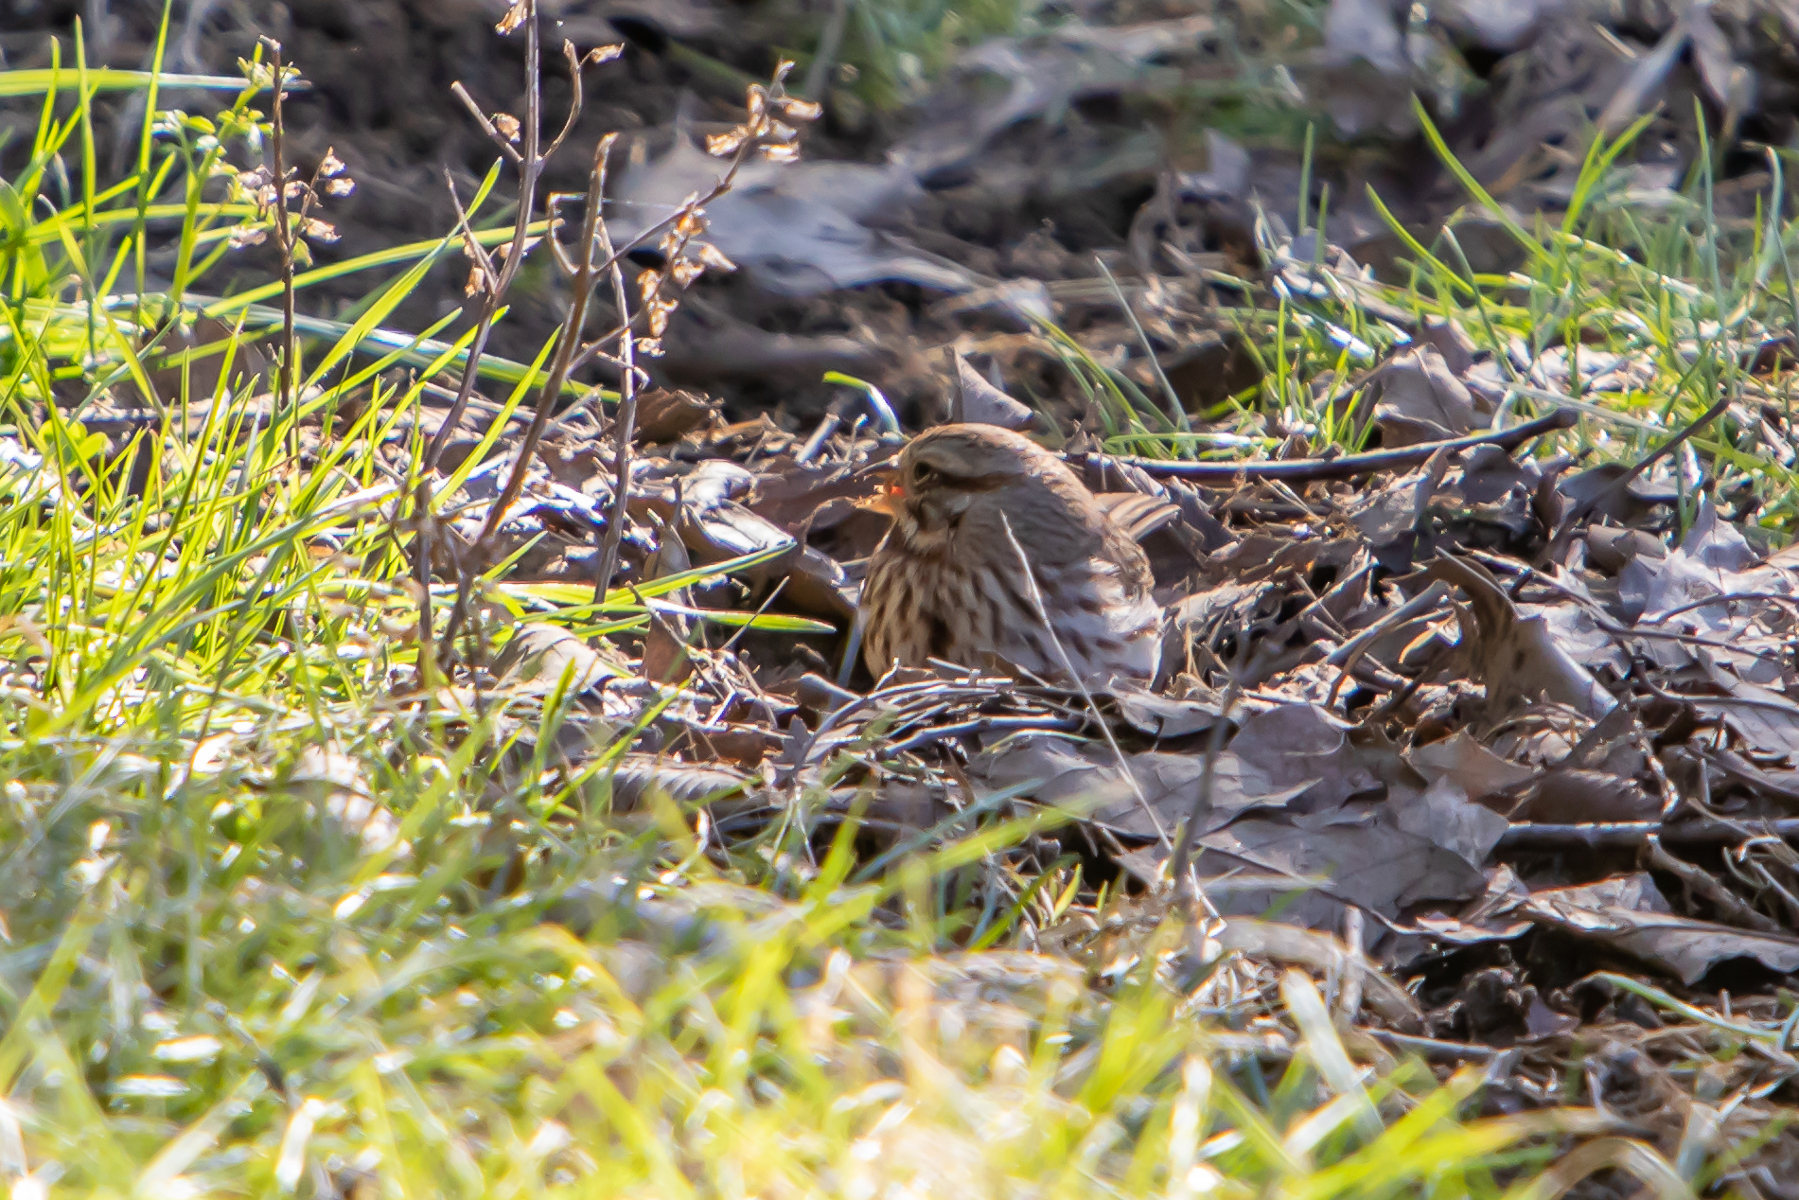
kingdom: Animalia
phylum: Chordata
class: Aves
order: Passeriformes
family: Passerellidae
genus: Melospiza
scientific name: Melospiza melodia
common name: Song sparrow
